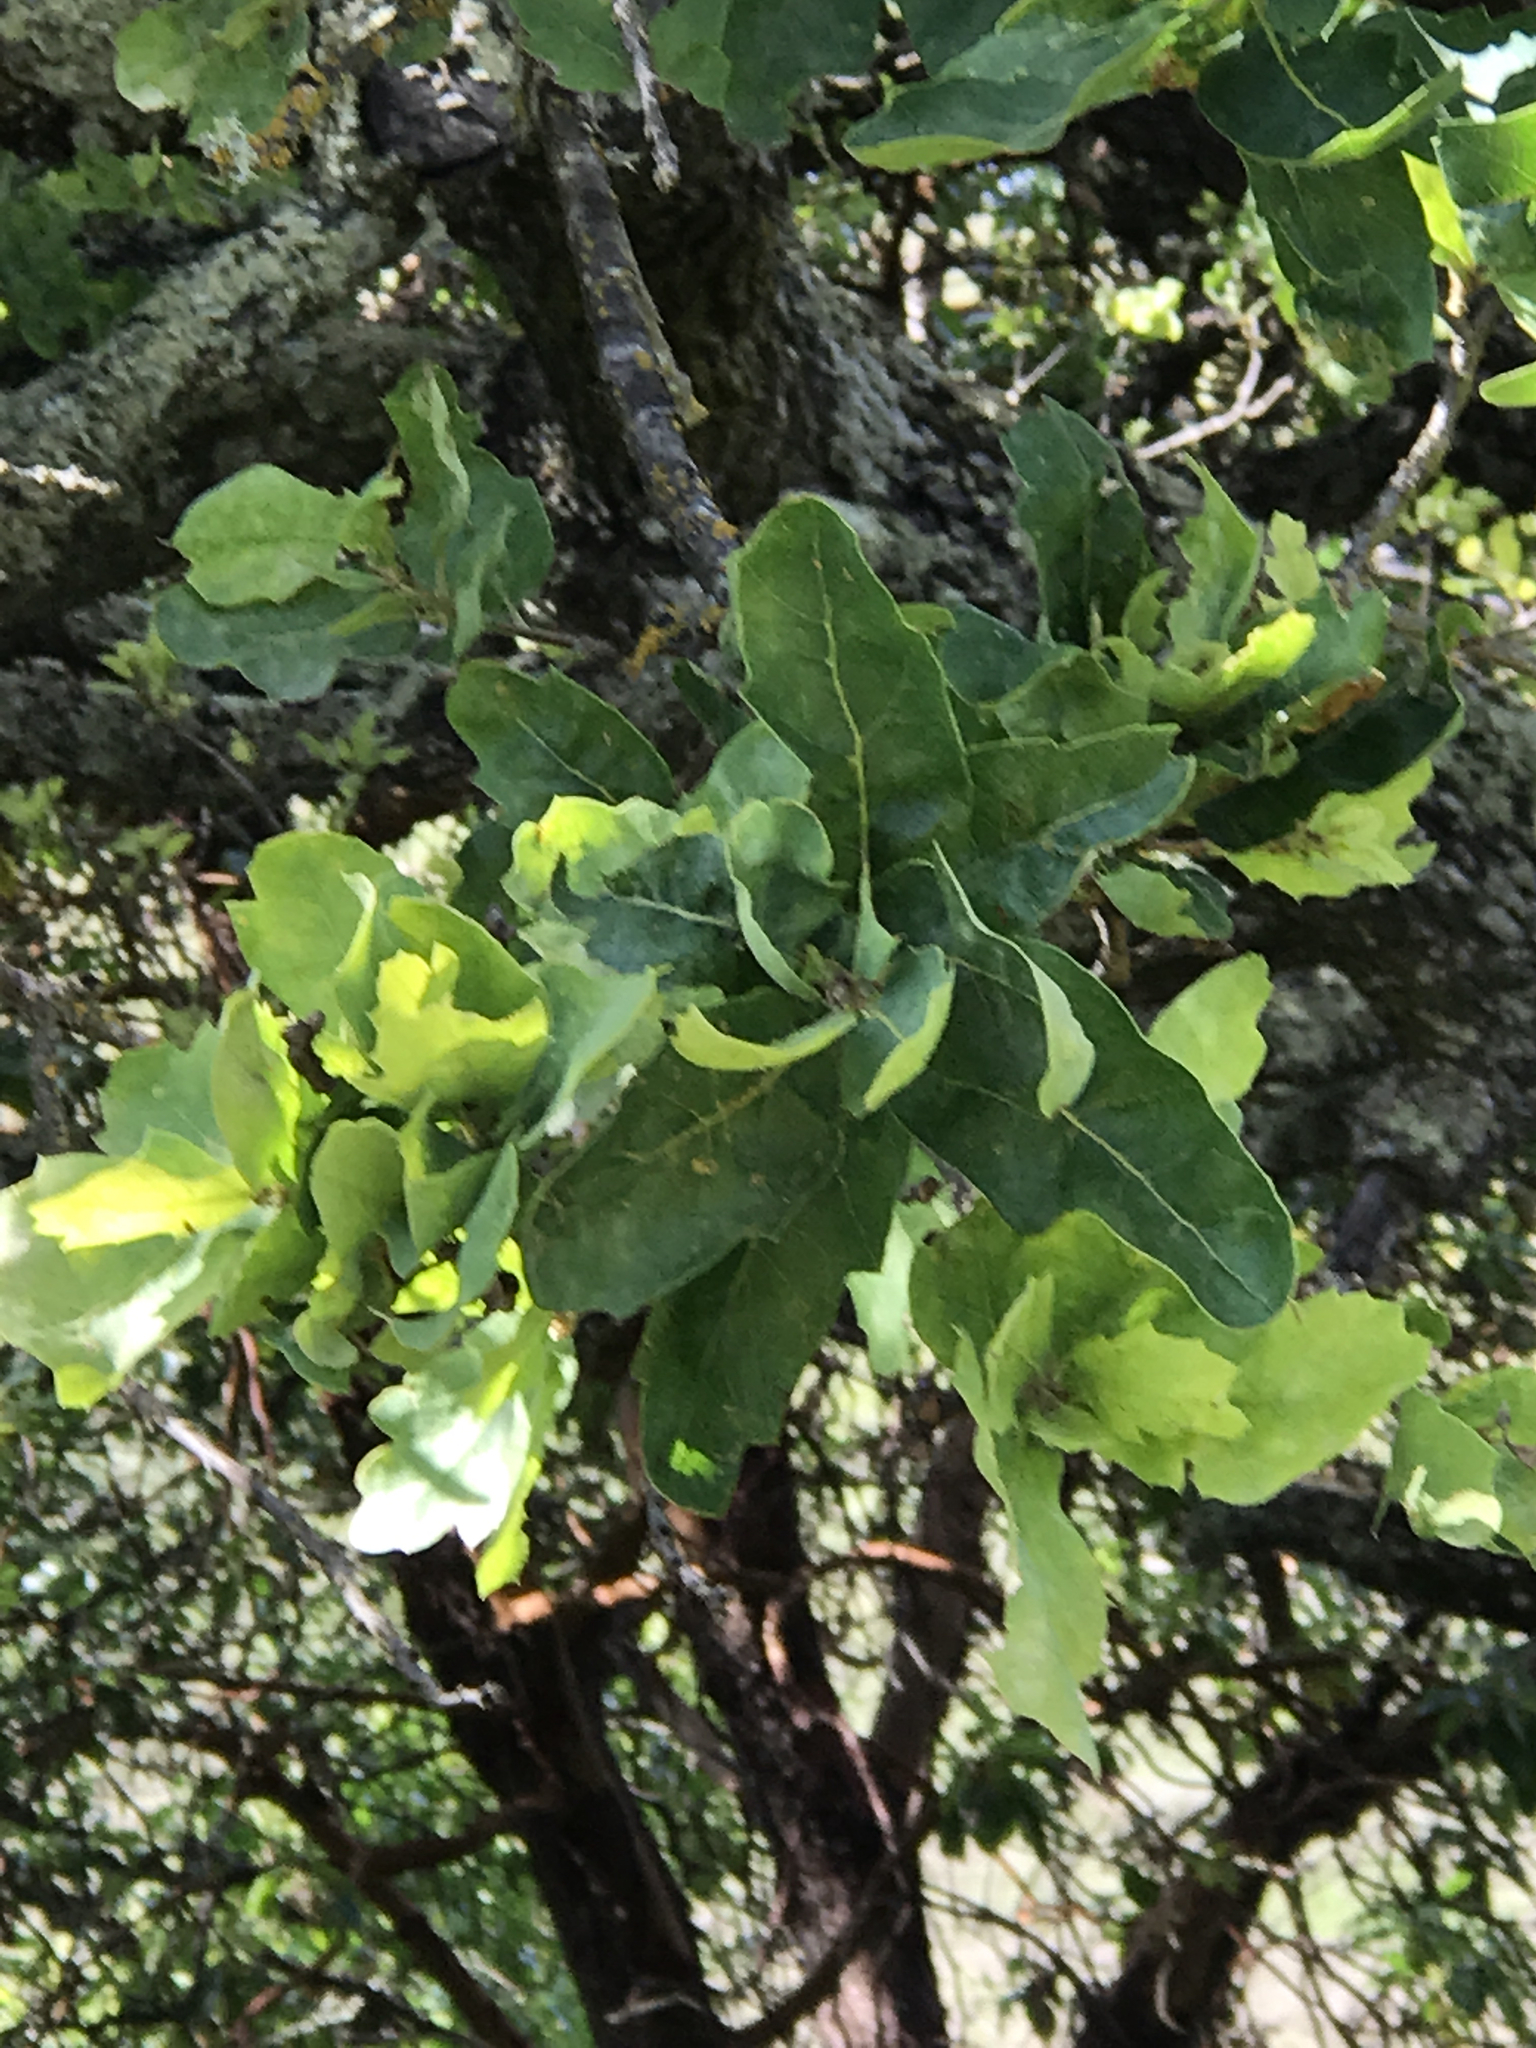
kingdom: Plantae
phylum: Tracheophyta
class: Magnoliopsida
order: Fagales
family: Fagaceae
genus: Quercus
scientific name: Quercus douglasii
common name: Blue oak
